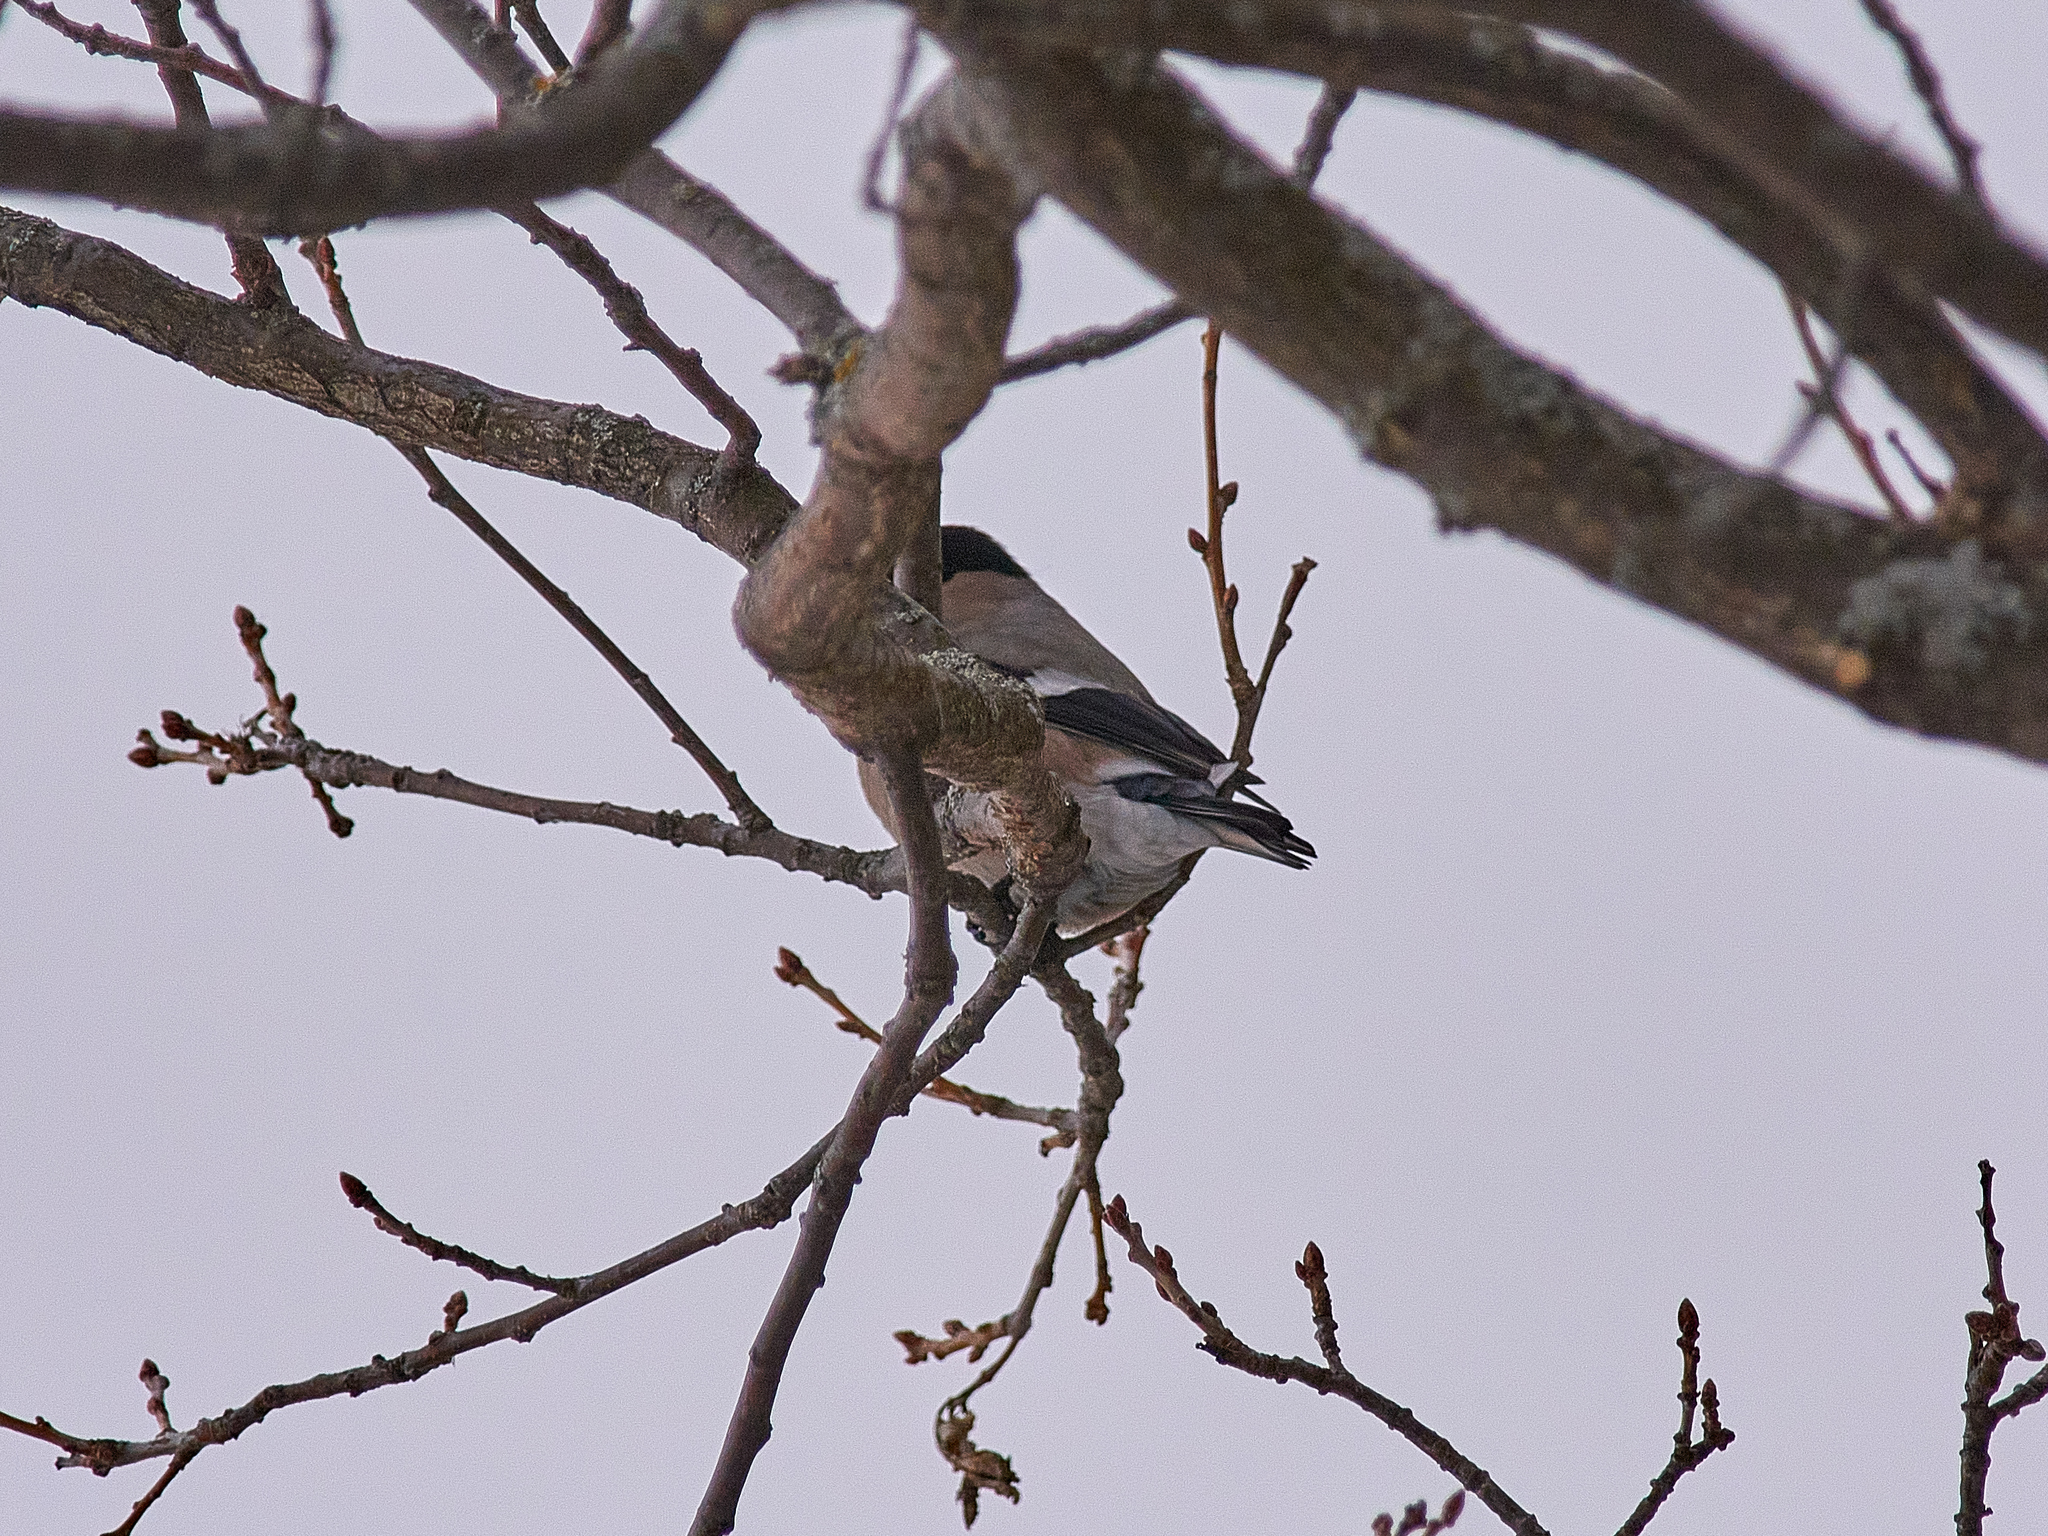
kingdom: Animalia
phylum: Chordata
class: Aves
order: Passeriformes
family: Fringillidae
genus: Pyrrhula
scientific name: Pyrrhula pyrrhula
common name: Eurasian bullfinch
